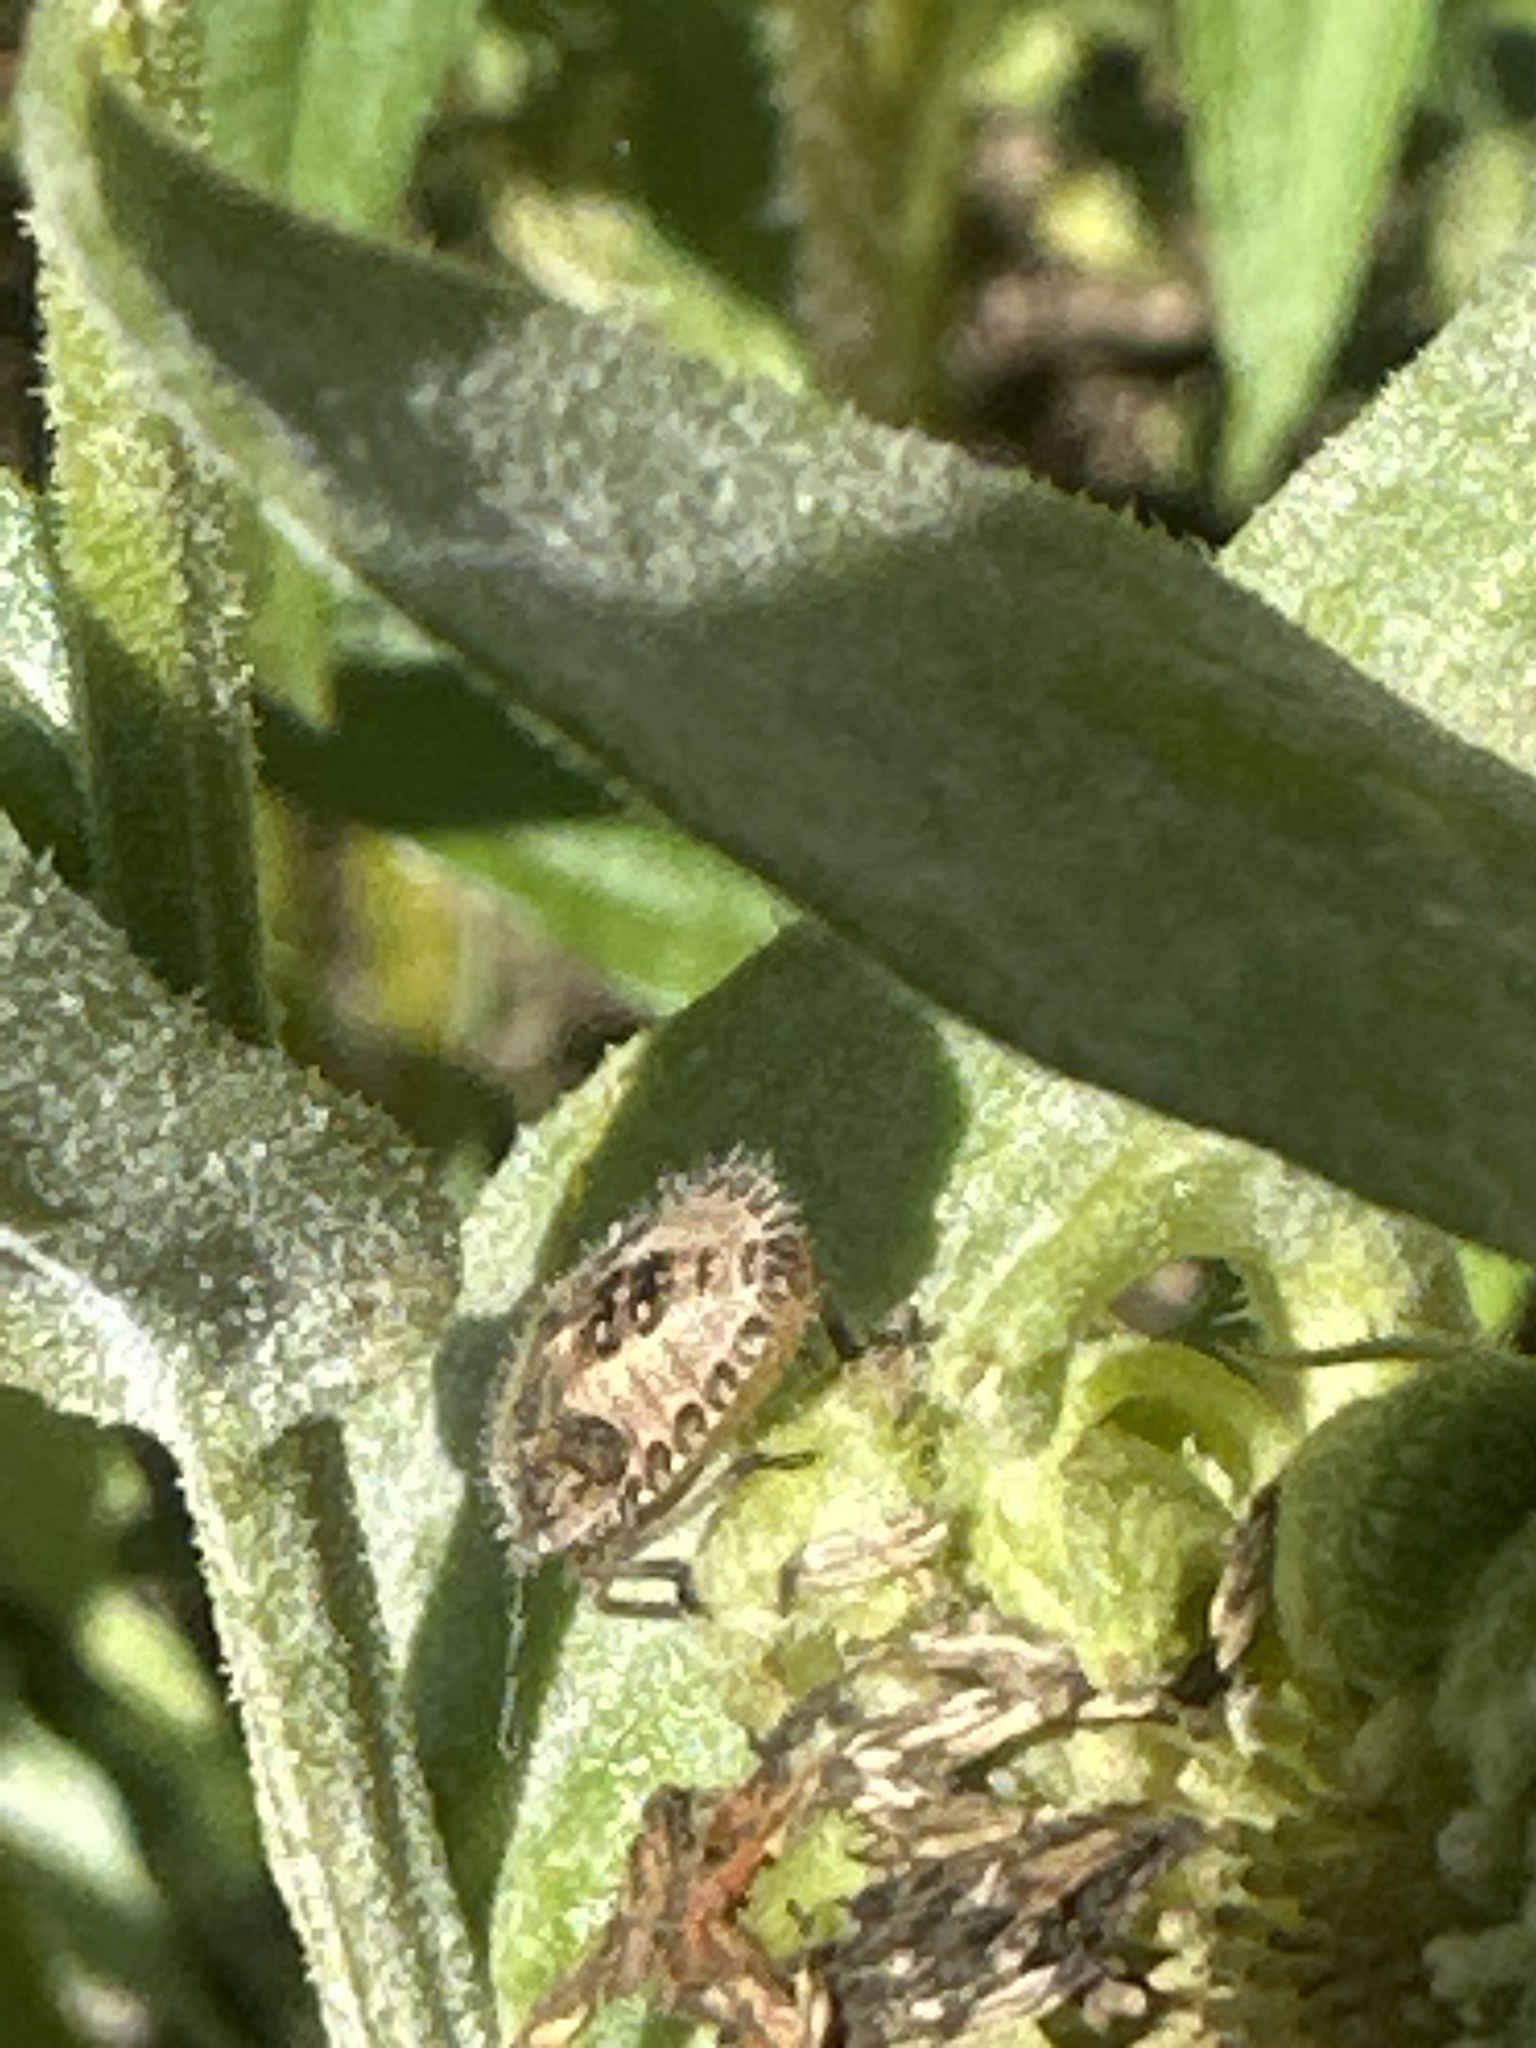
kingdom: Animalia
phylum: Arthropoda
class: Insecta
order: Hemiptera
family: Pentatomidae
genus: Dolycoris
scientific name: Dolycoris baccarum
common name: Sloe bug
